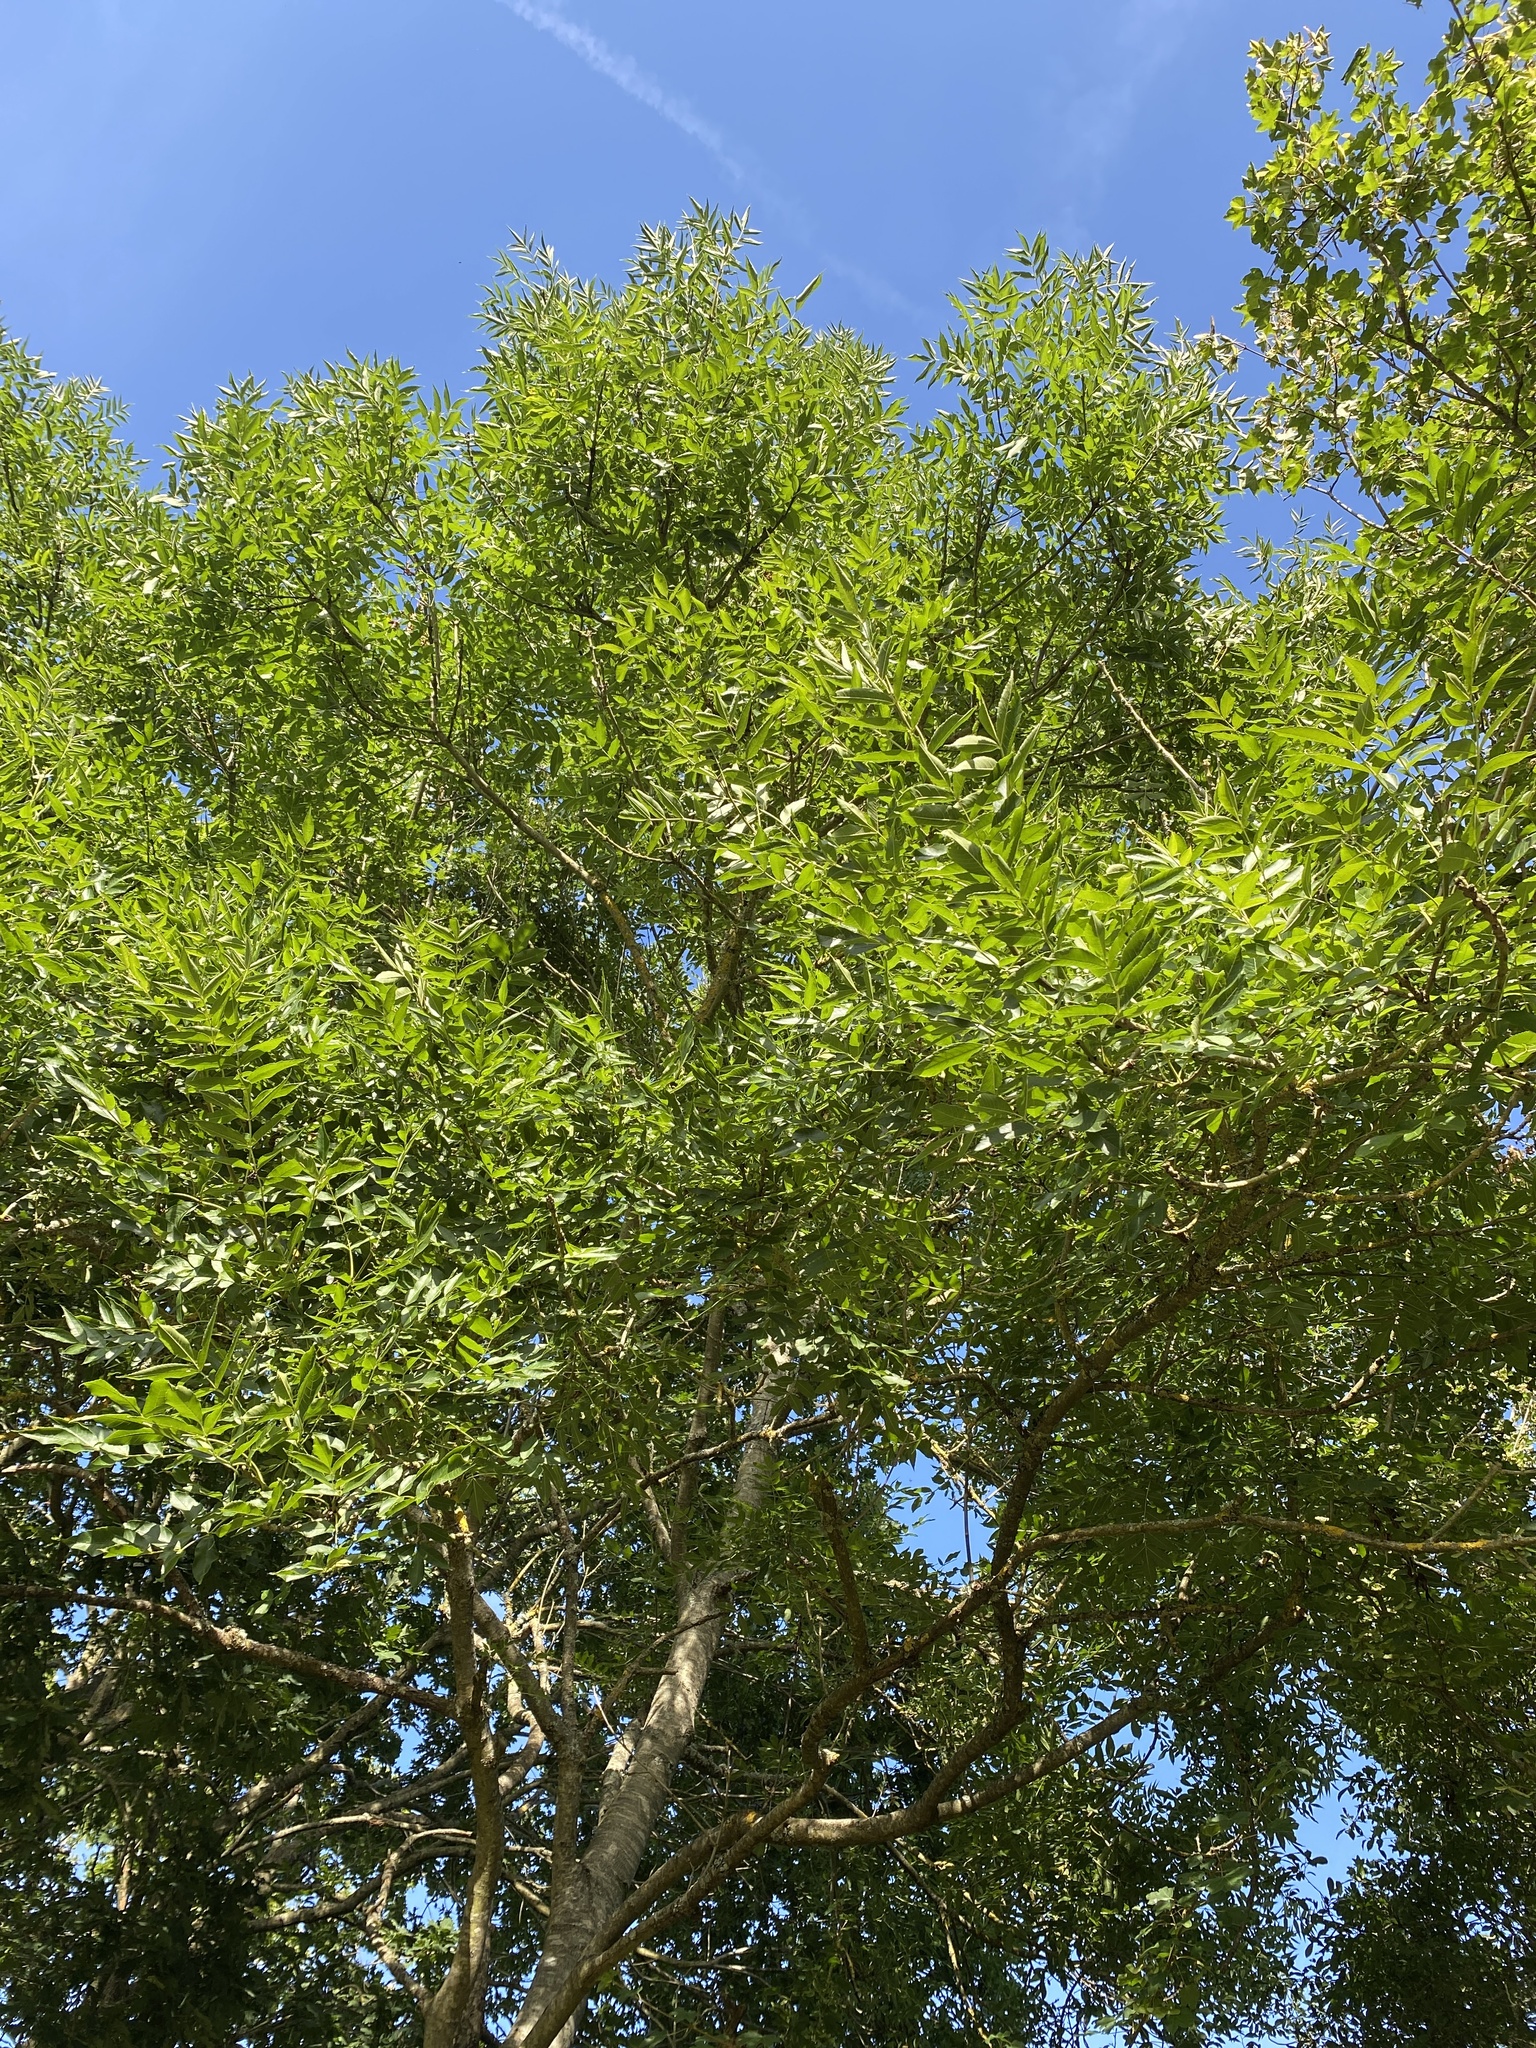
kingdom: Plantae
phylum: Tracheophyta
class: Magnoliopsida
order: Lamiales
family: Oleaceae
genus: Fraxinus
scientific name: Fraxinus excelsior
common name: European ash
